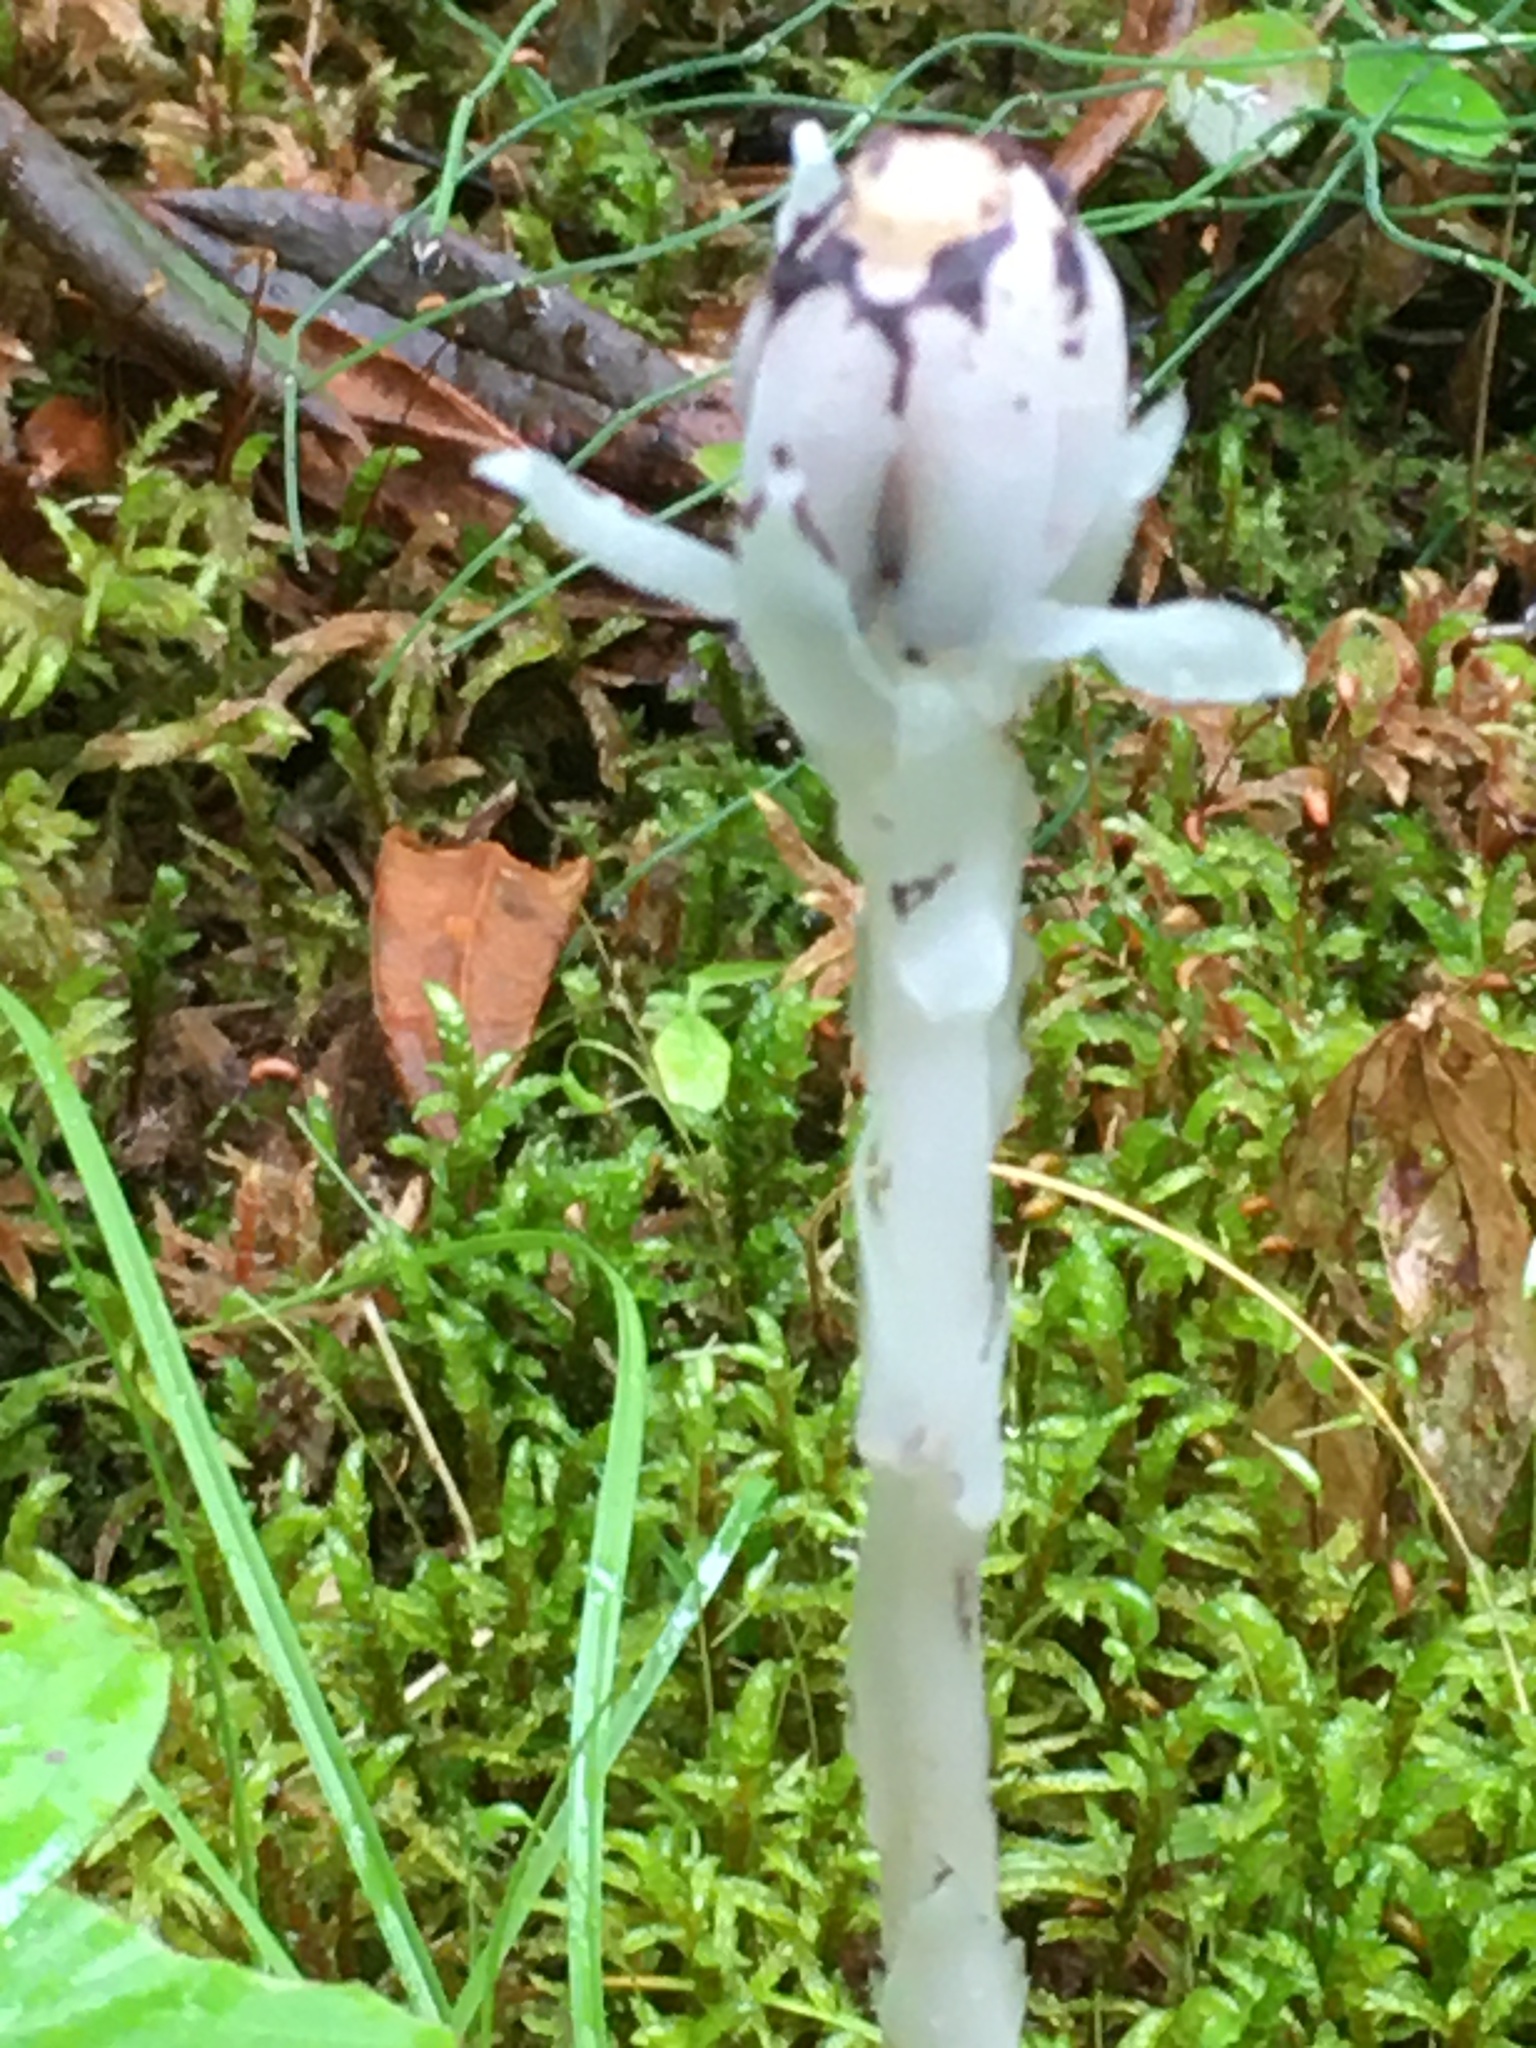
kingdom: Plantae
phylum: Tracheophyta
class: Magnoliopsida
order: Ericales
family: Ericaceae
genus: Monotropa
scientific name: Monotropa uniflora
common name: Convulsion root
